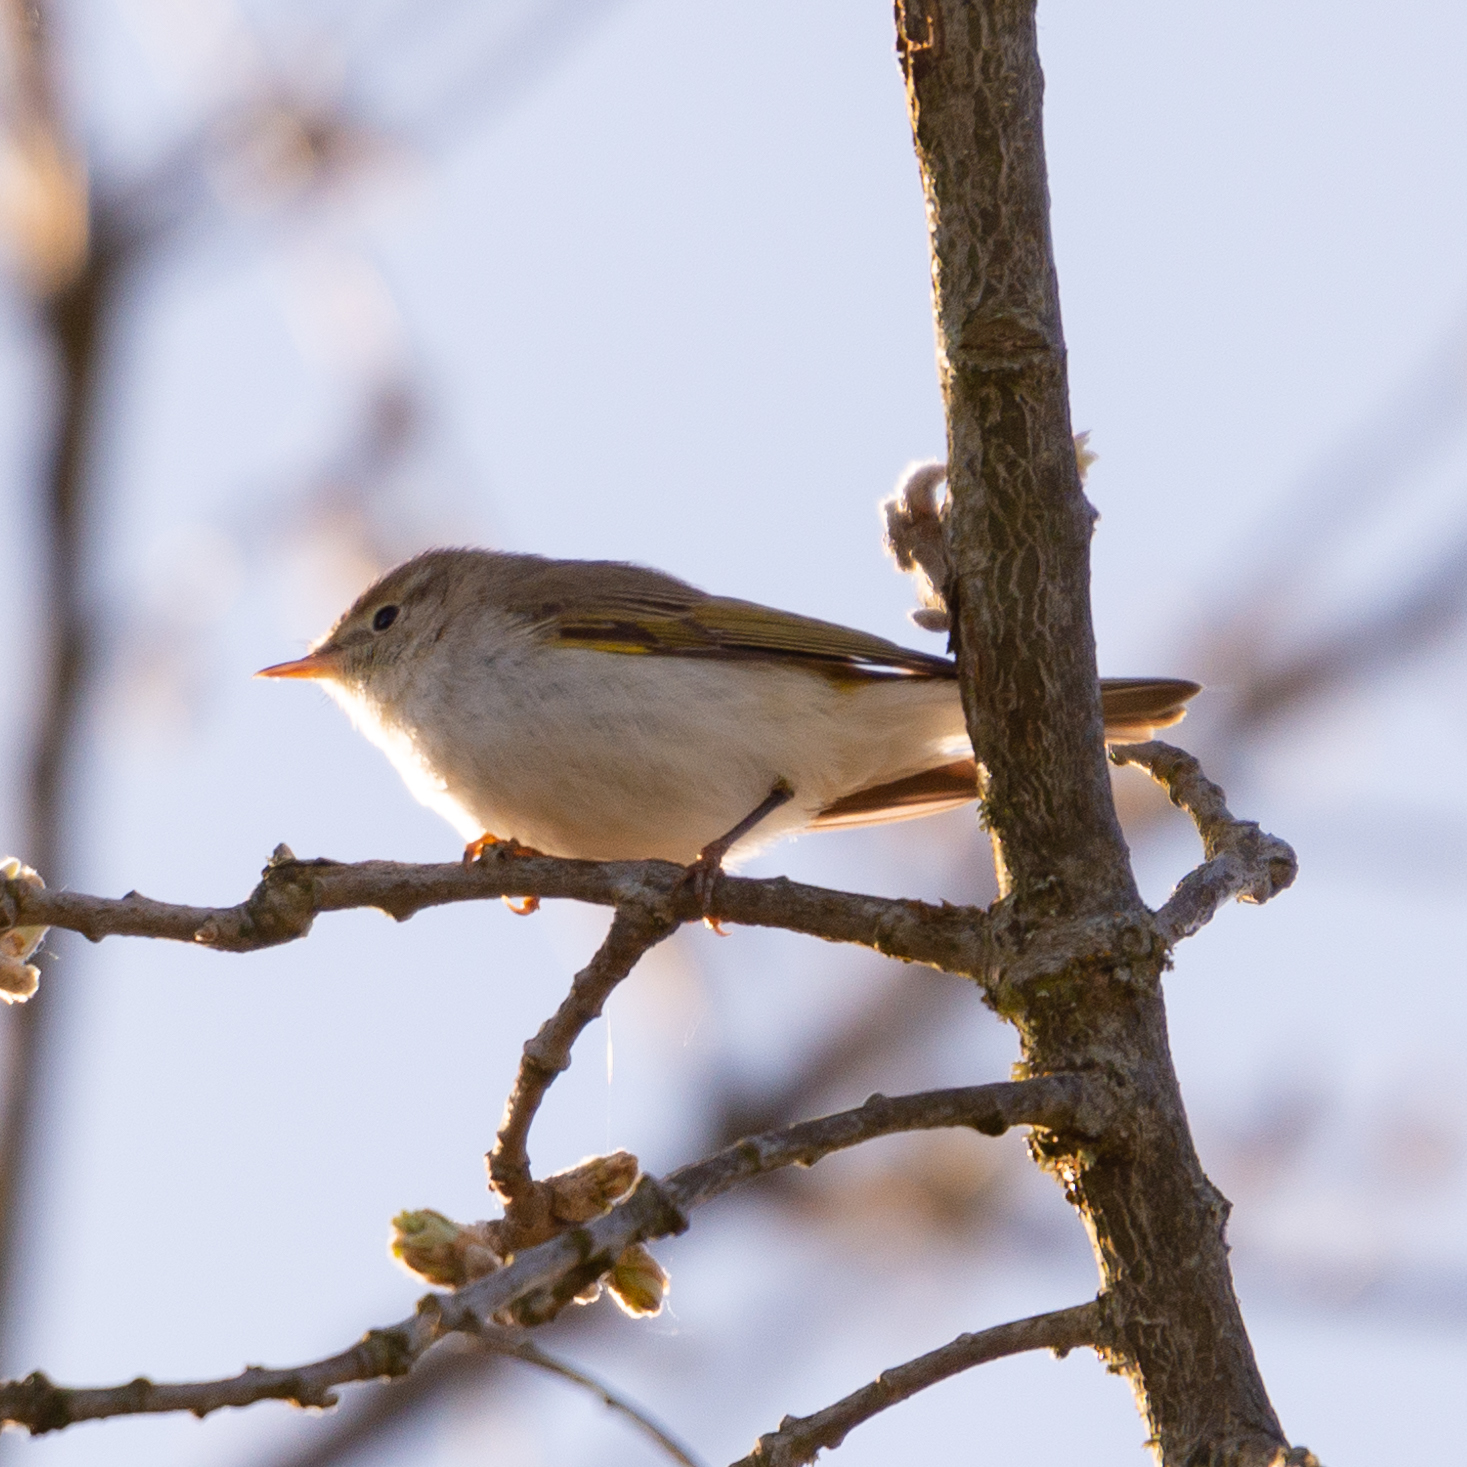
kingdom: Animalia
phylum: Chordata
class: Aves
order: Passeriformes
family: Phylloscopidae
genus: Phylloscopus
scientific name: Phylloscopus bonelli
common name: Western bonelli's warbler
